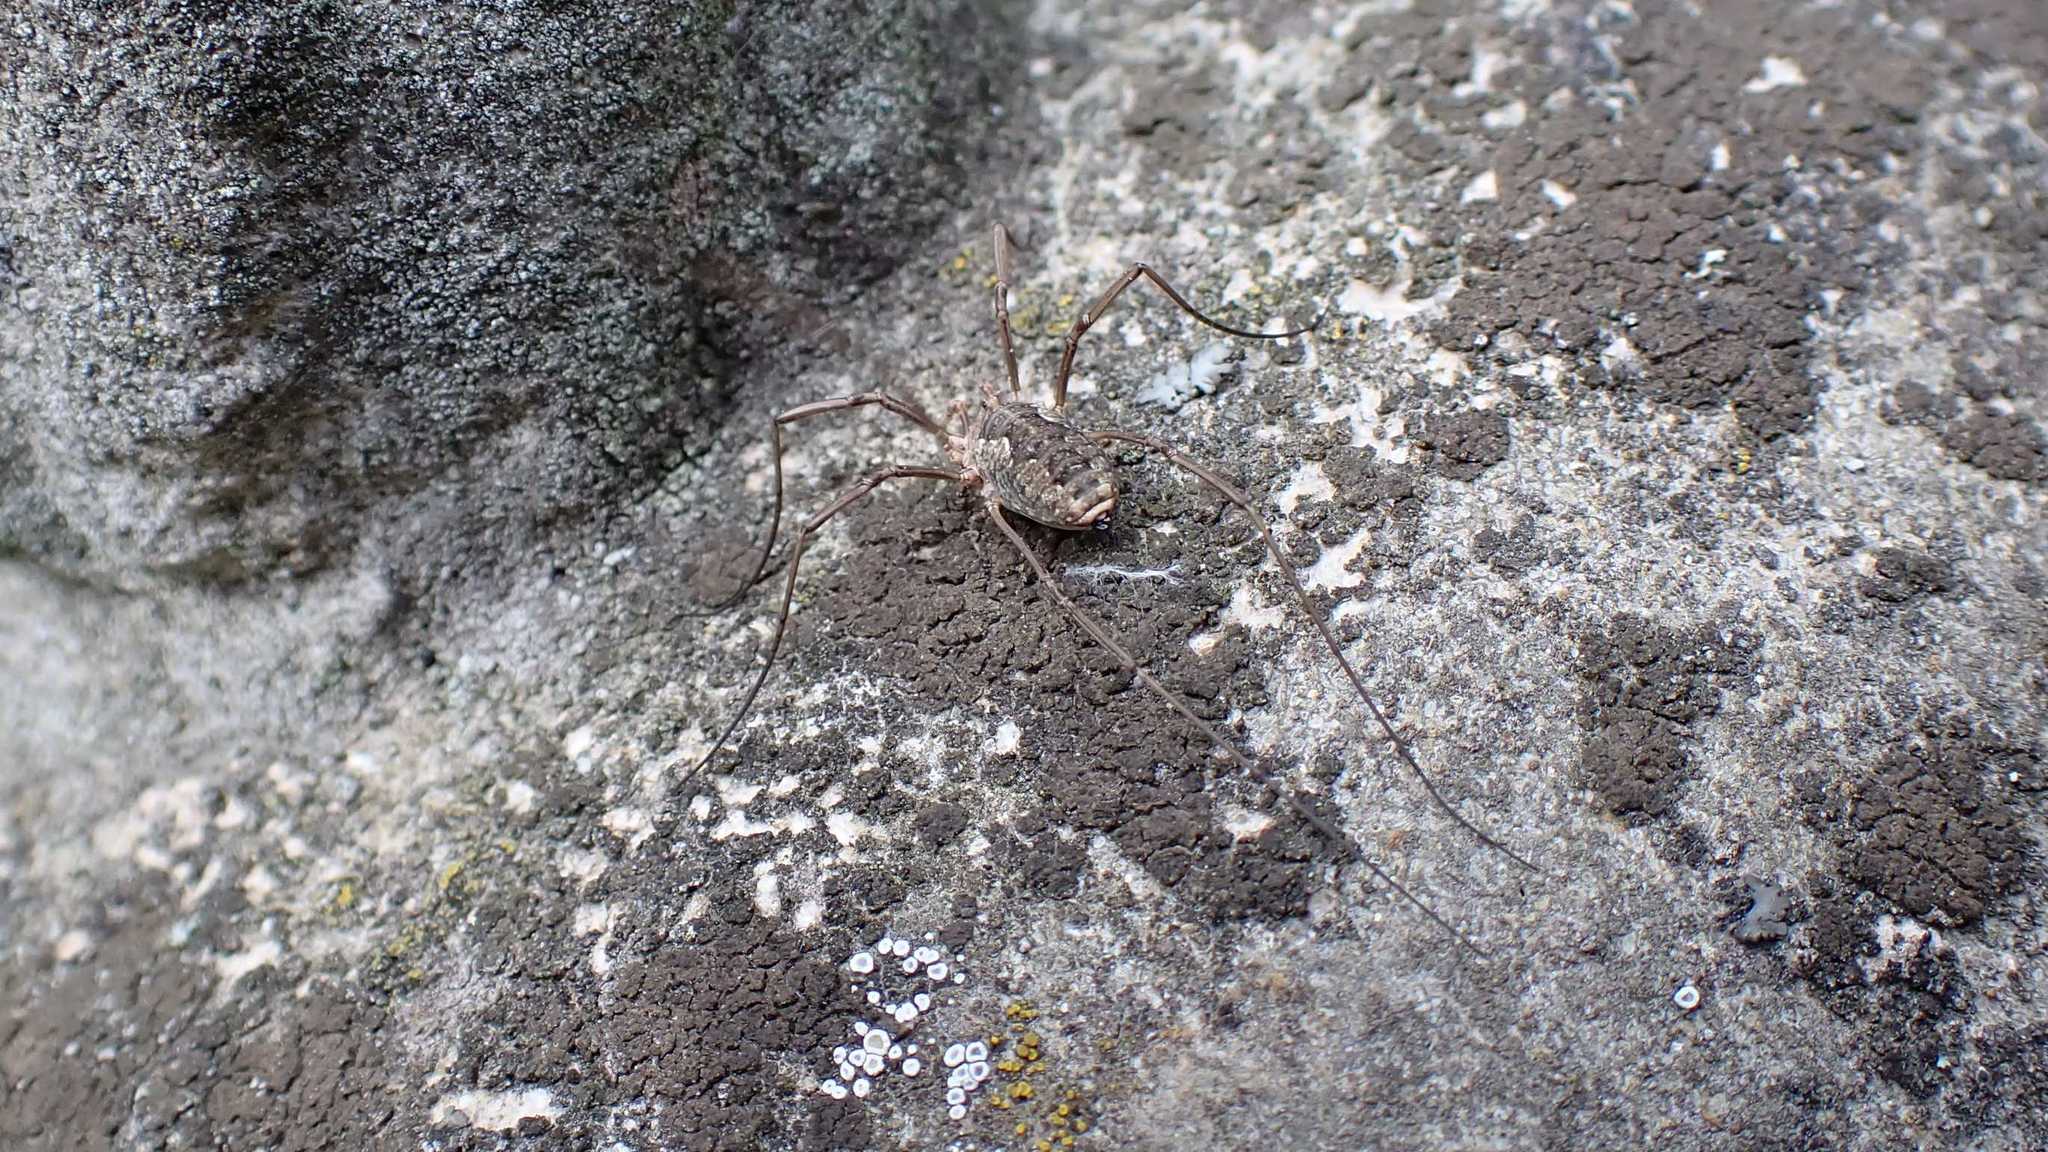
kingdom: Animalia
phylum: Arthropoda
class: Arachnida
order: Opiliones
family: Phalangiidae
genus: Phalangium
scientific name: Phalangium opilio
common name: Daddy longleg
